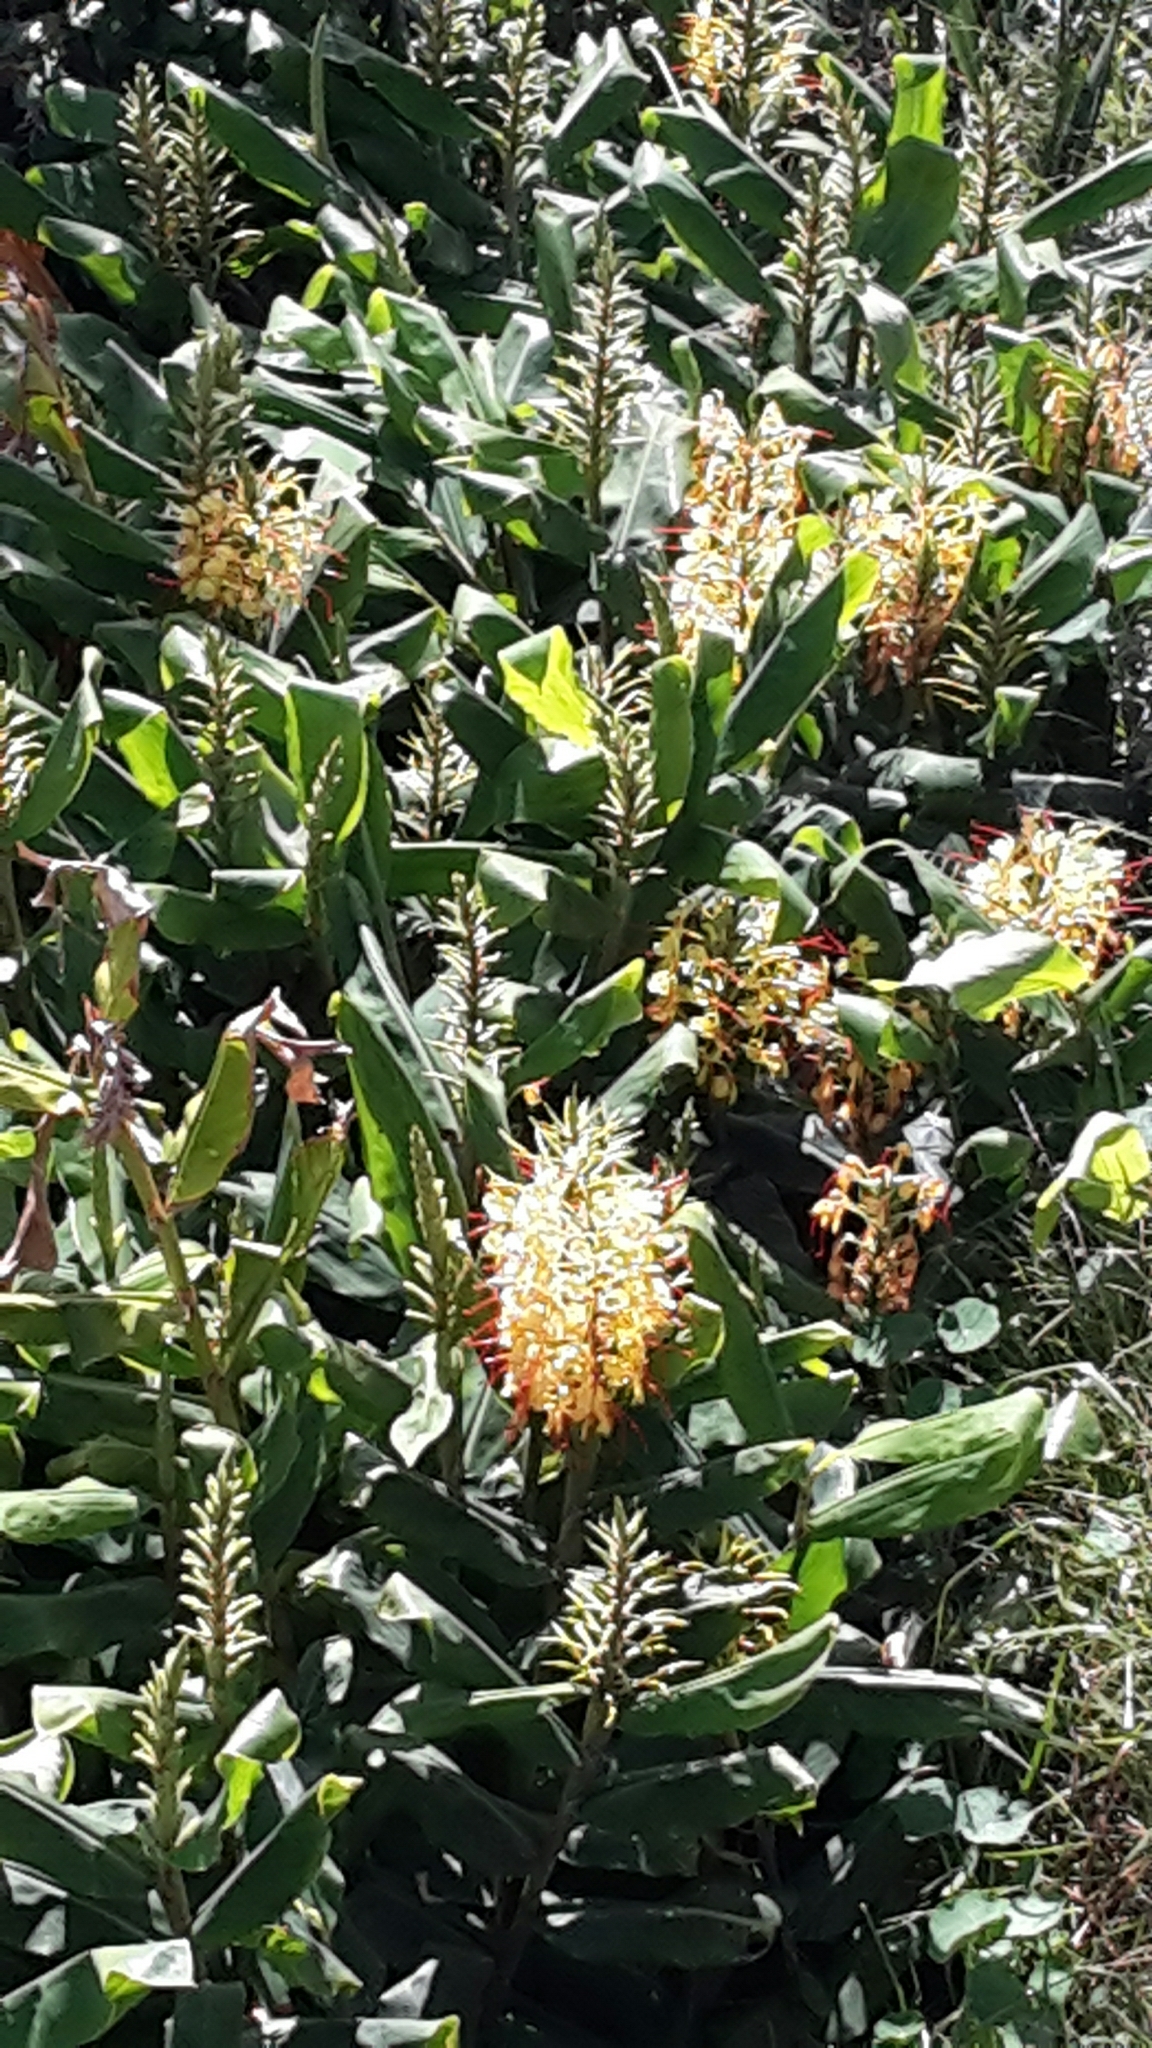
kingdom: Plantae
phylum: Tracheophyta
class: Liliopsida
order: Zingiberales
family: Zingiberaceae
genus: Hedychium
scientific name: Hedychium gardnerianum
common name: Himalayan ginger
